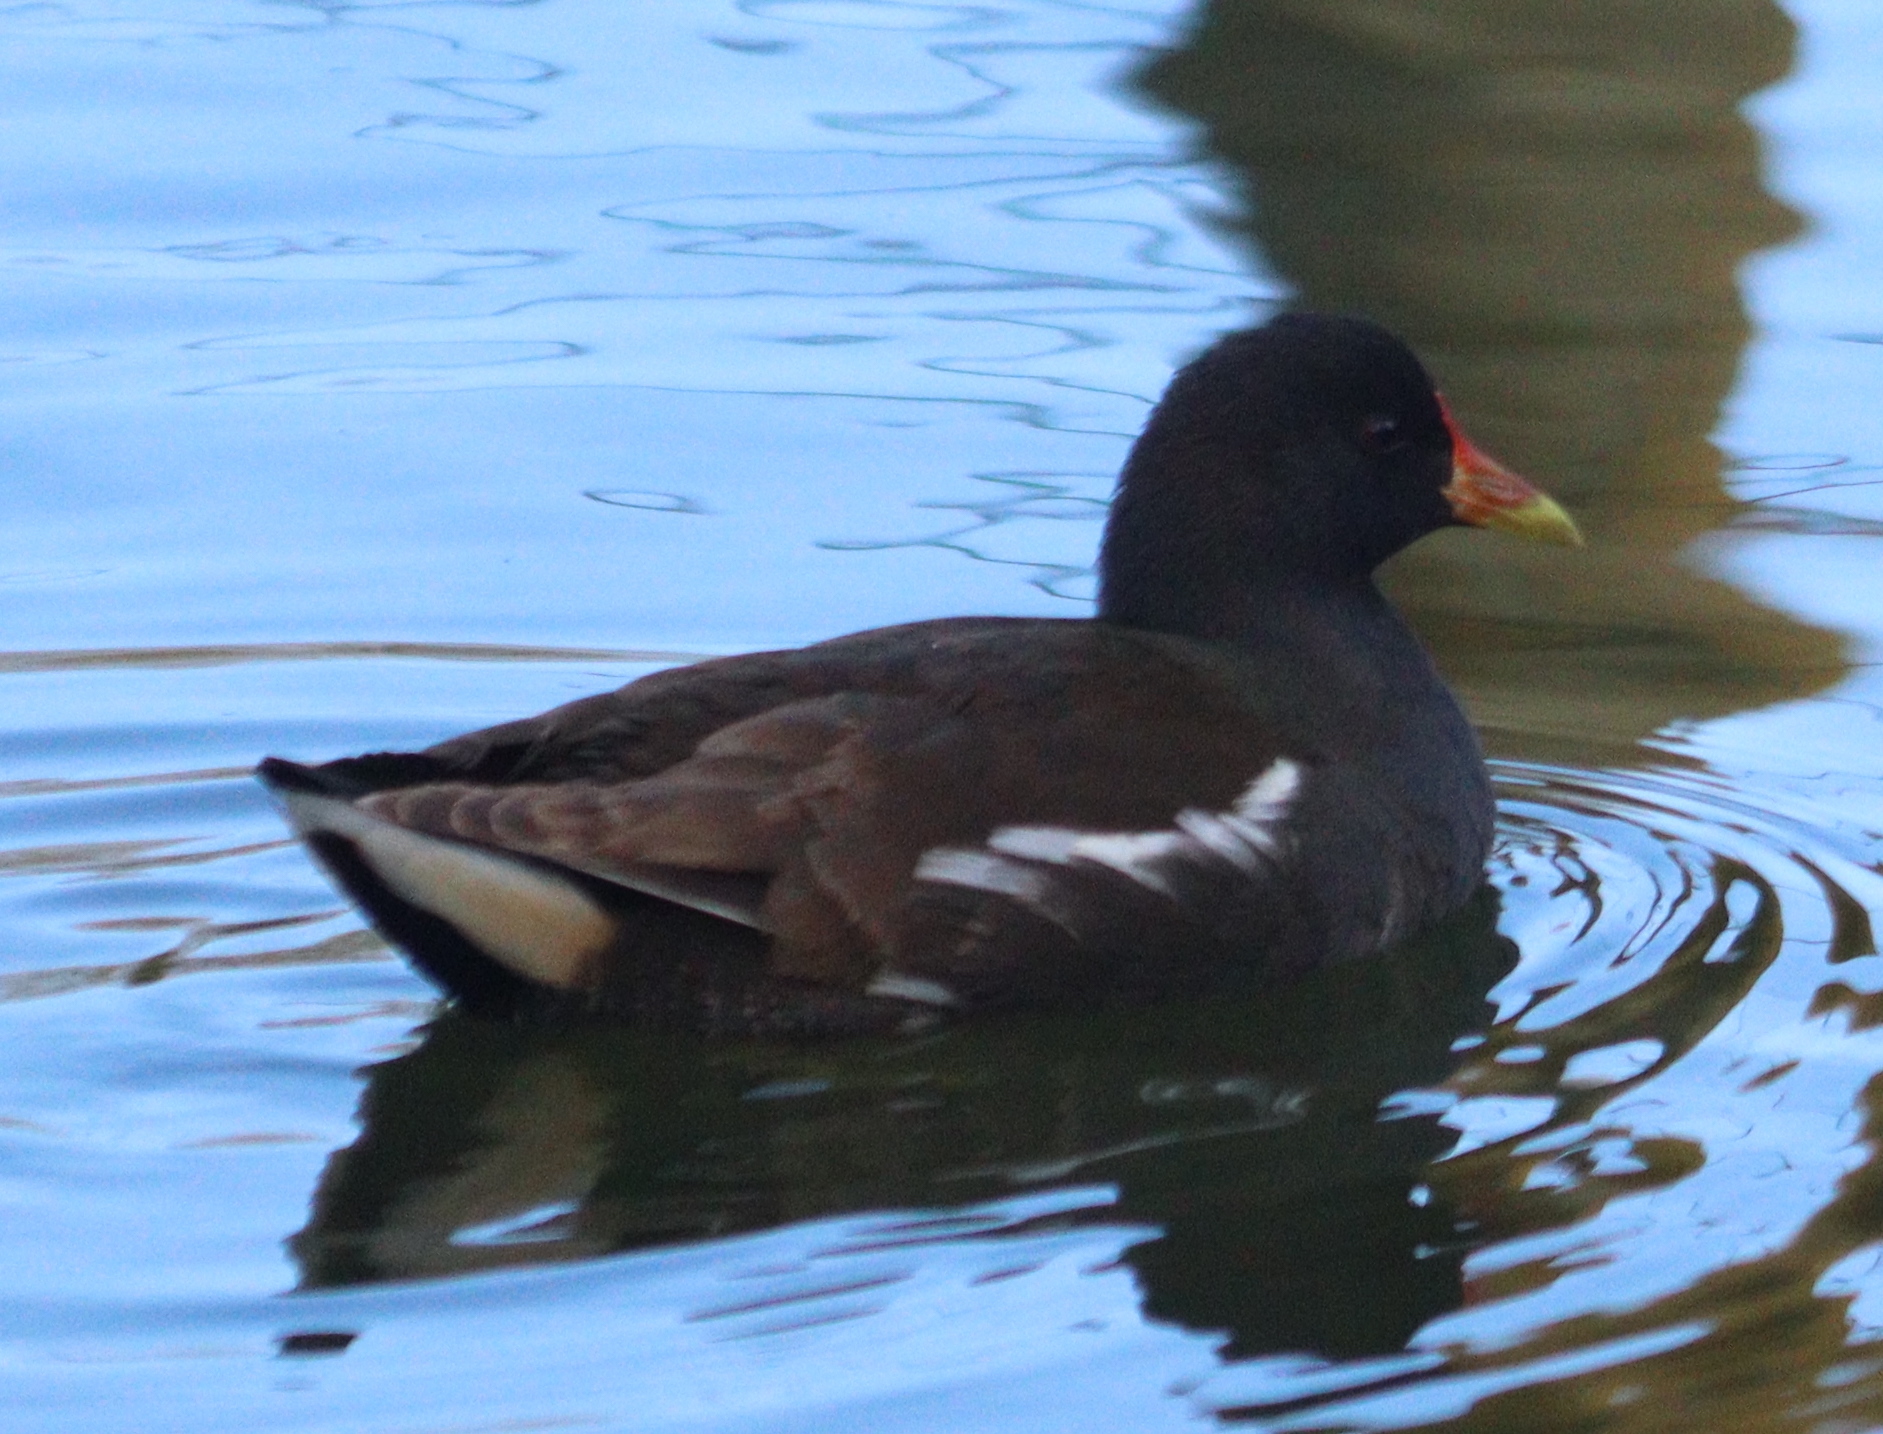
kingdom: Animalia
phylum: Chordata
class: Aves
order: Gruiformes
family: Rallidae
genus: Gallinula
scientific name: Gallinula chloropus
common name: Common moorhen
